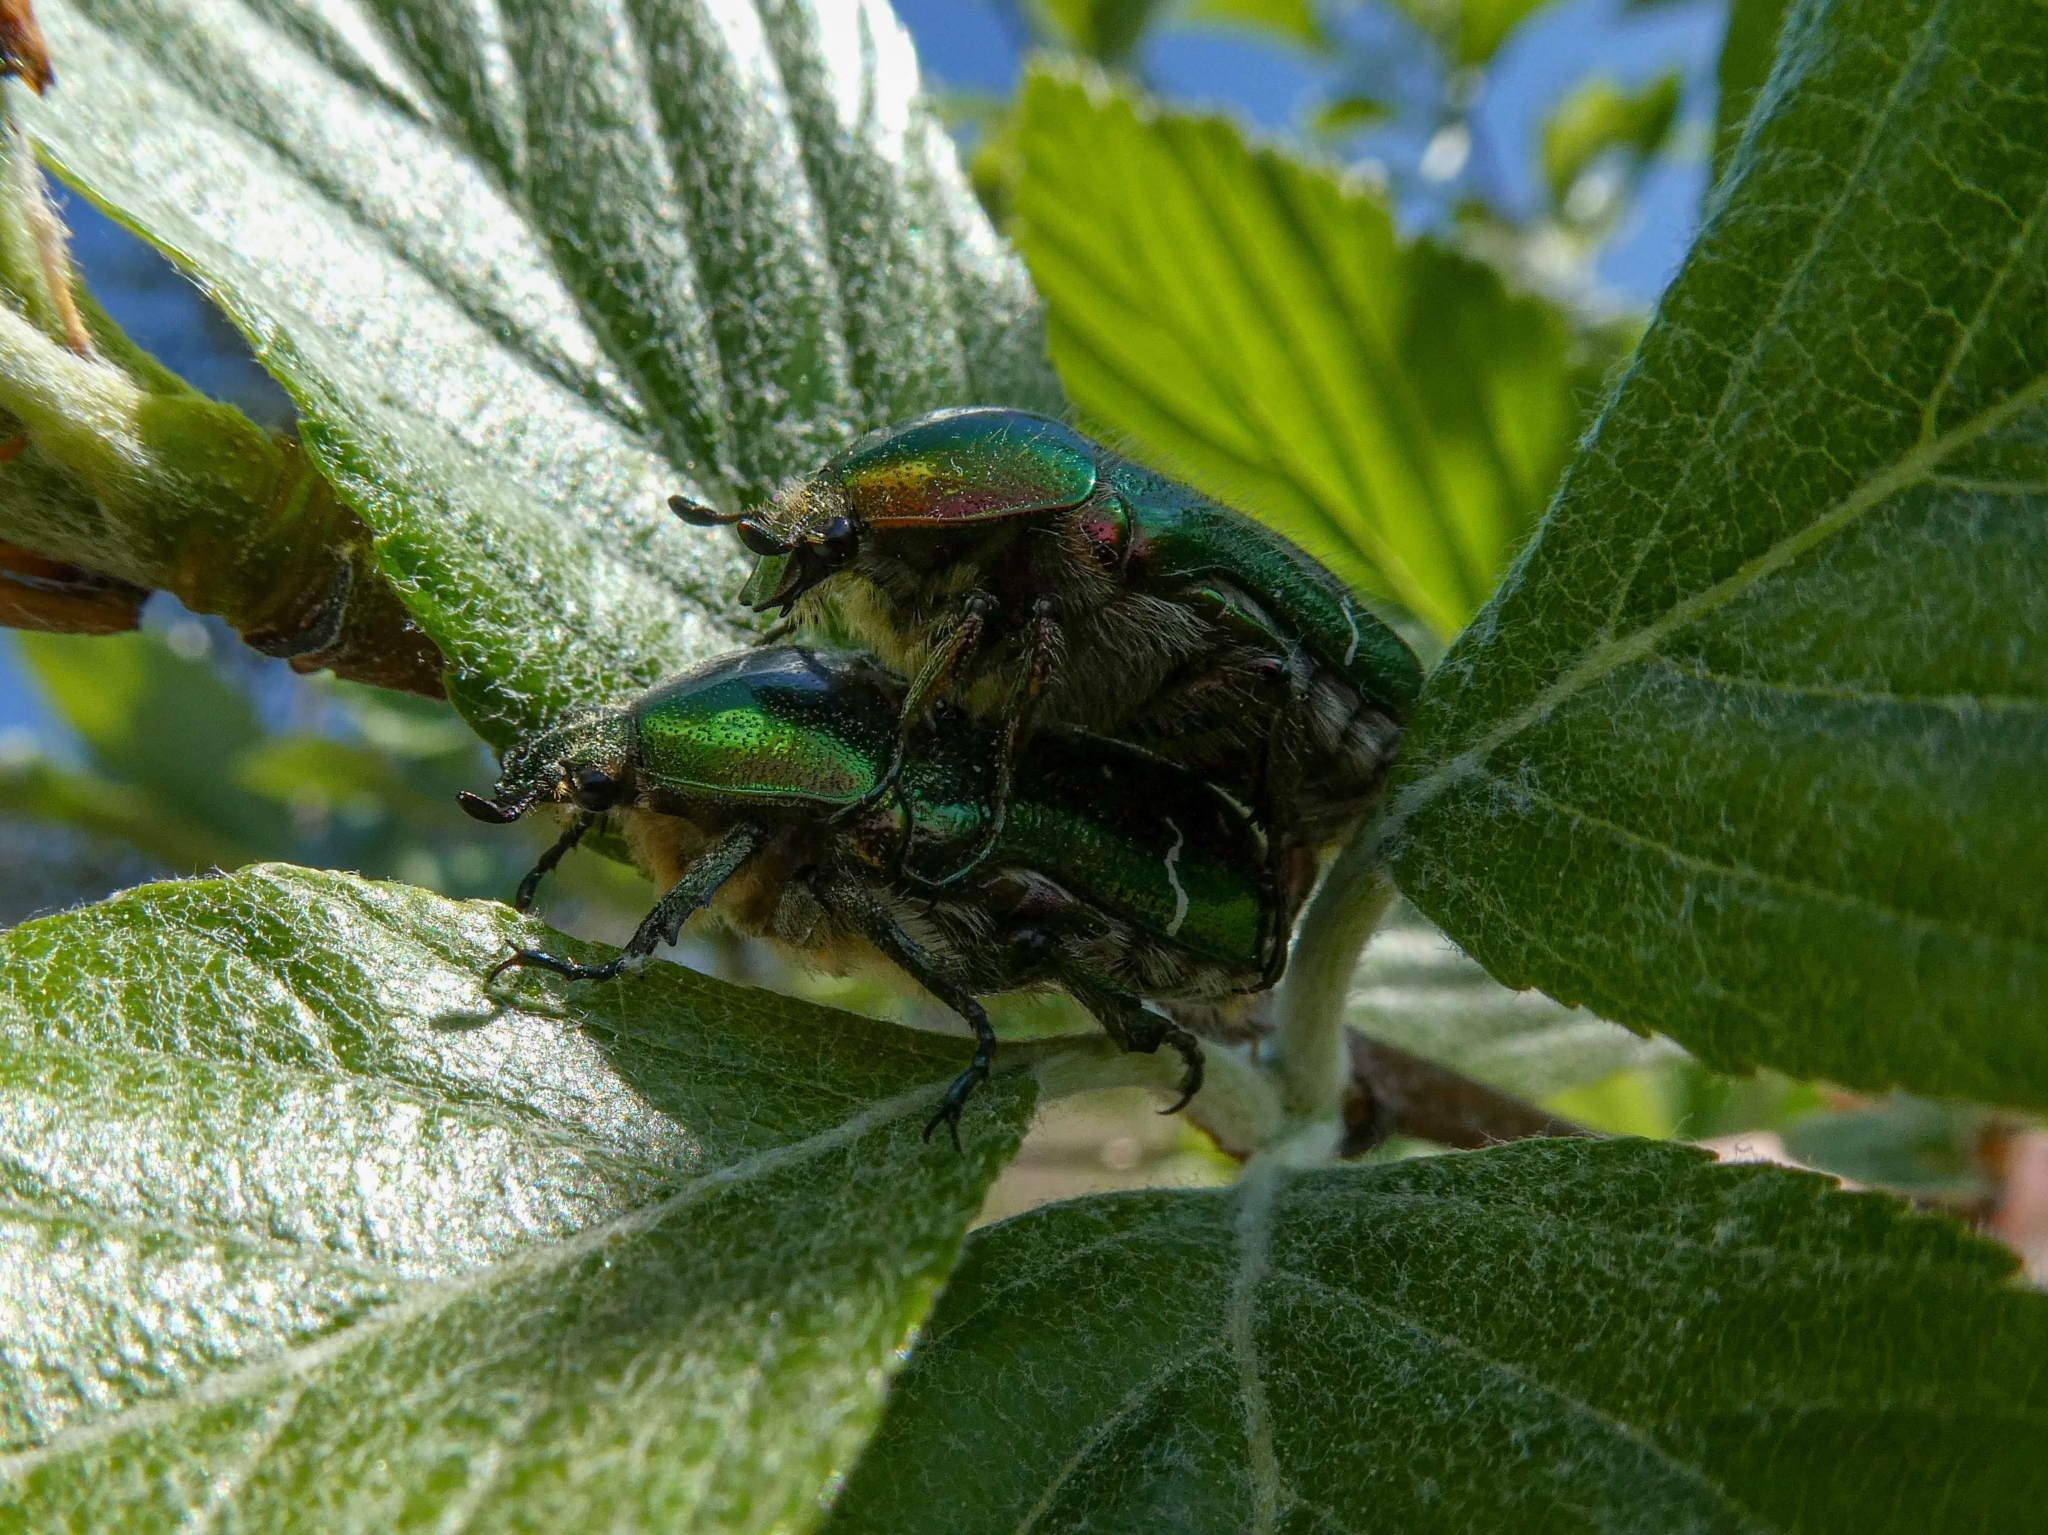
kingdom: Animalia
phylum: Arthropoda
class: Insecta
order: Coleoptera
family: Scarabaeidae
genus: Cetonia
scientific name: Cetonia aurata
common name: Rose chafer
